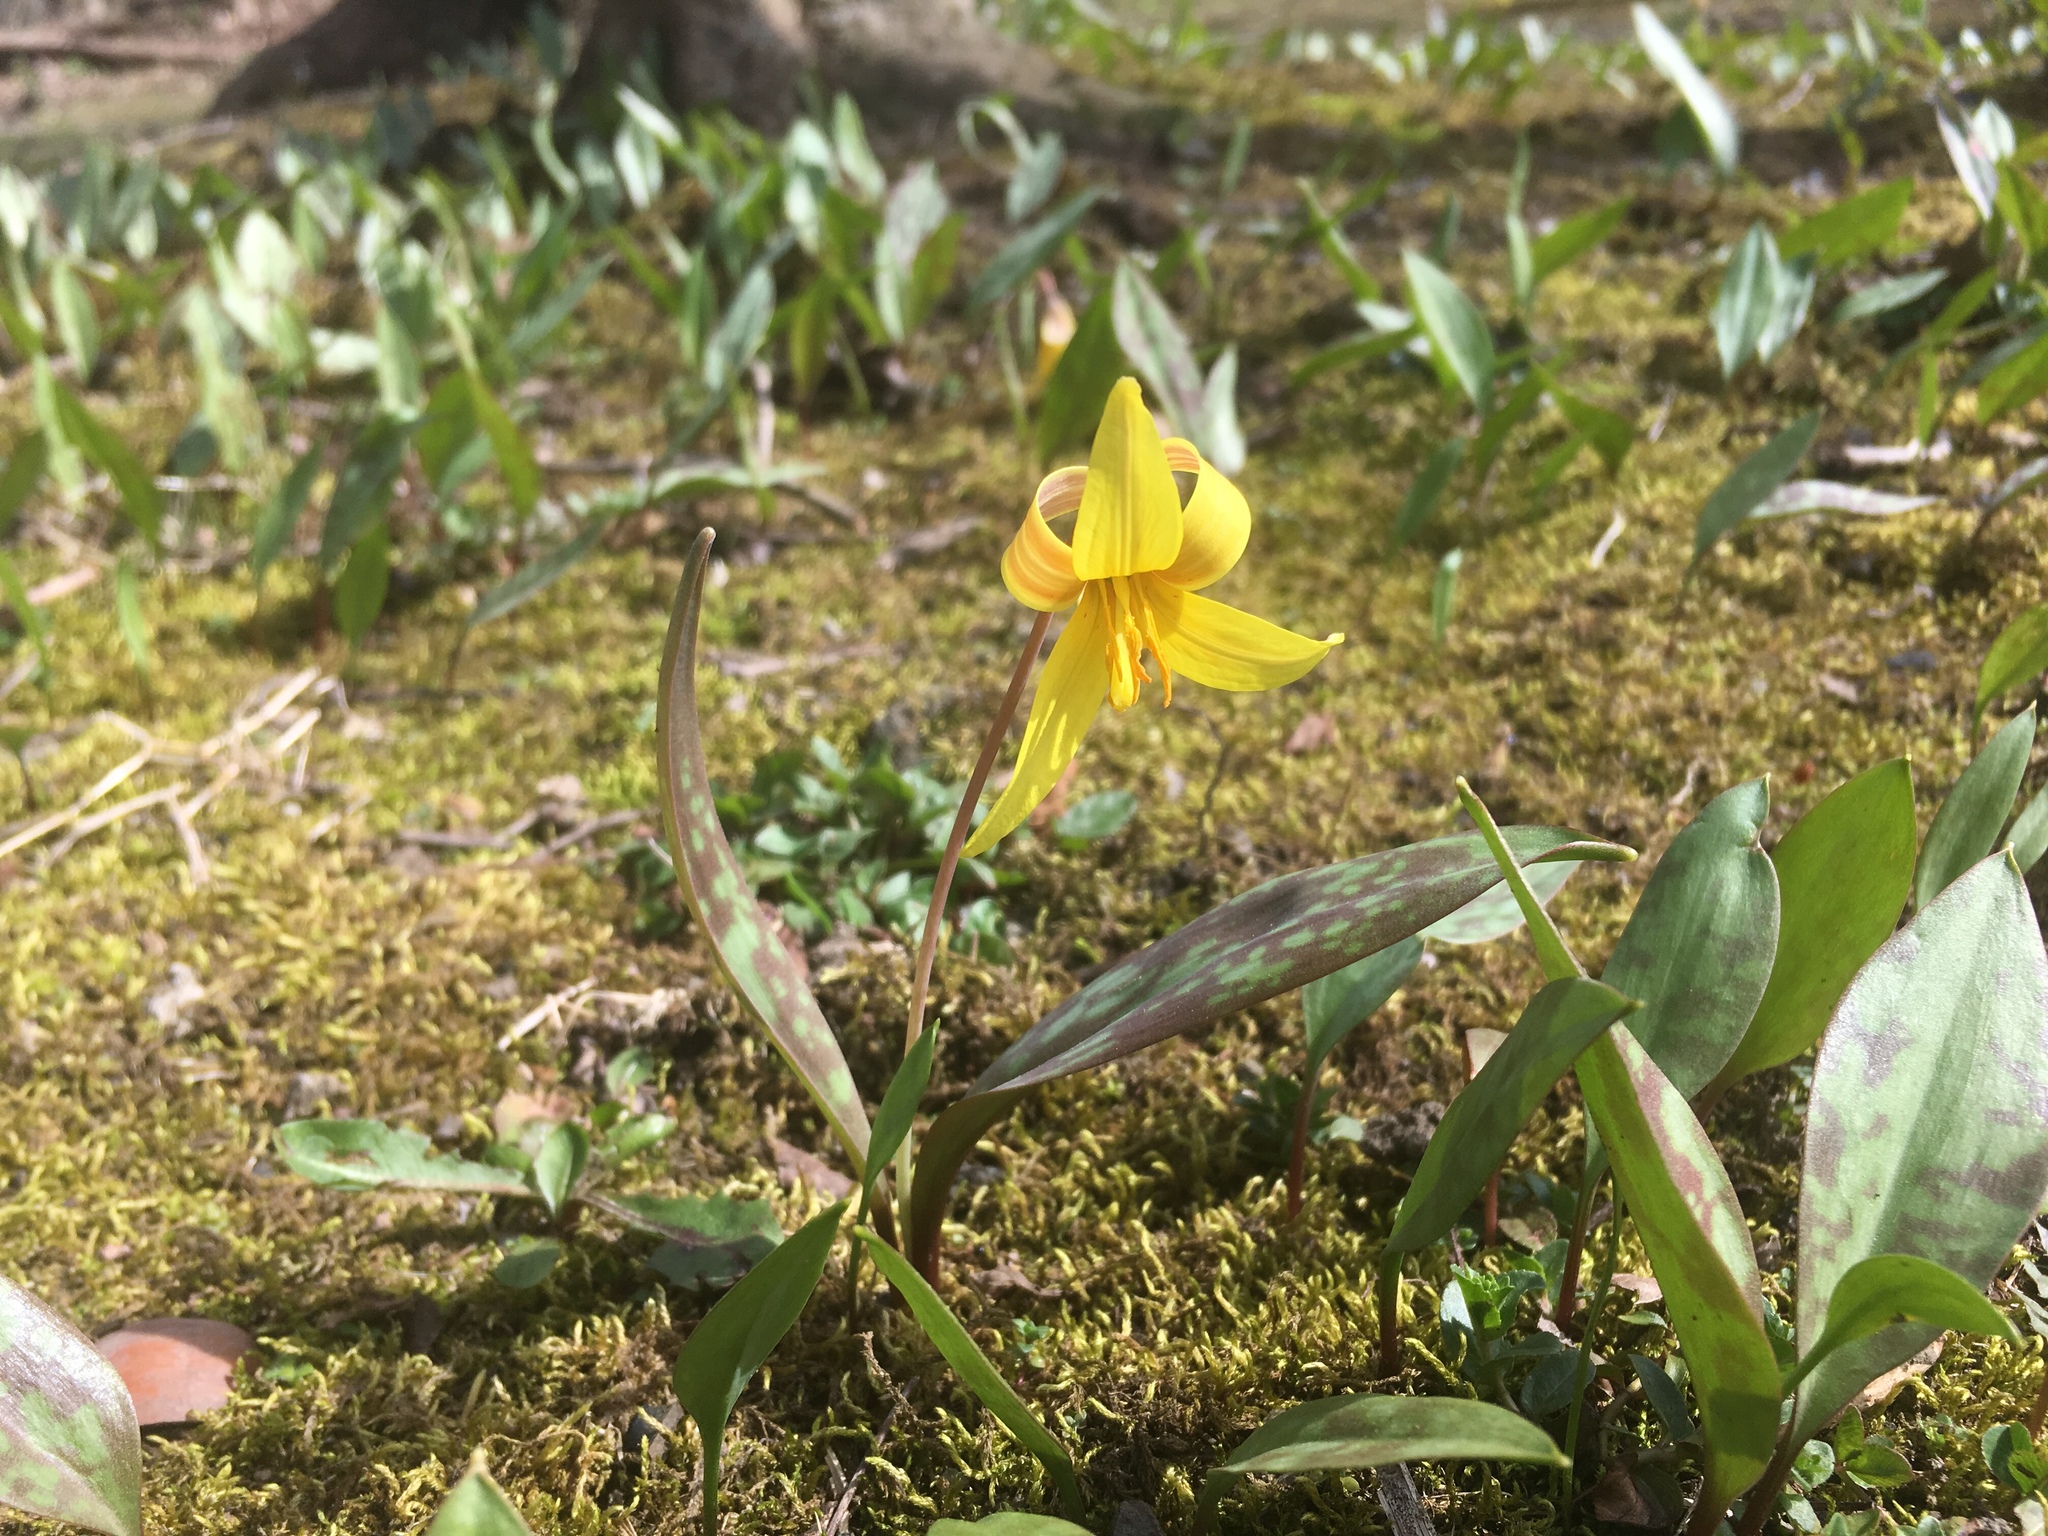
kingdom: Plantae
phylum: Tracheophyta
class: Liliopsida
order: Liliales
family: Liliaceae
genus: Erythronium
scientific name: Erythronium americanum
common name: Yellow adder's-tongue
